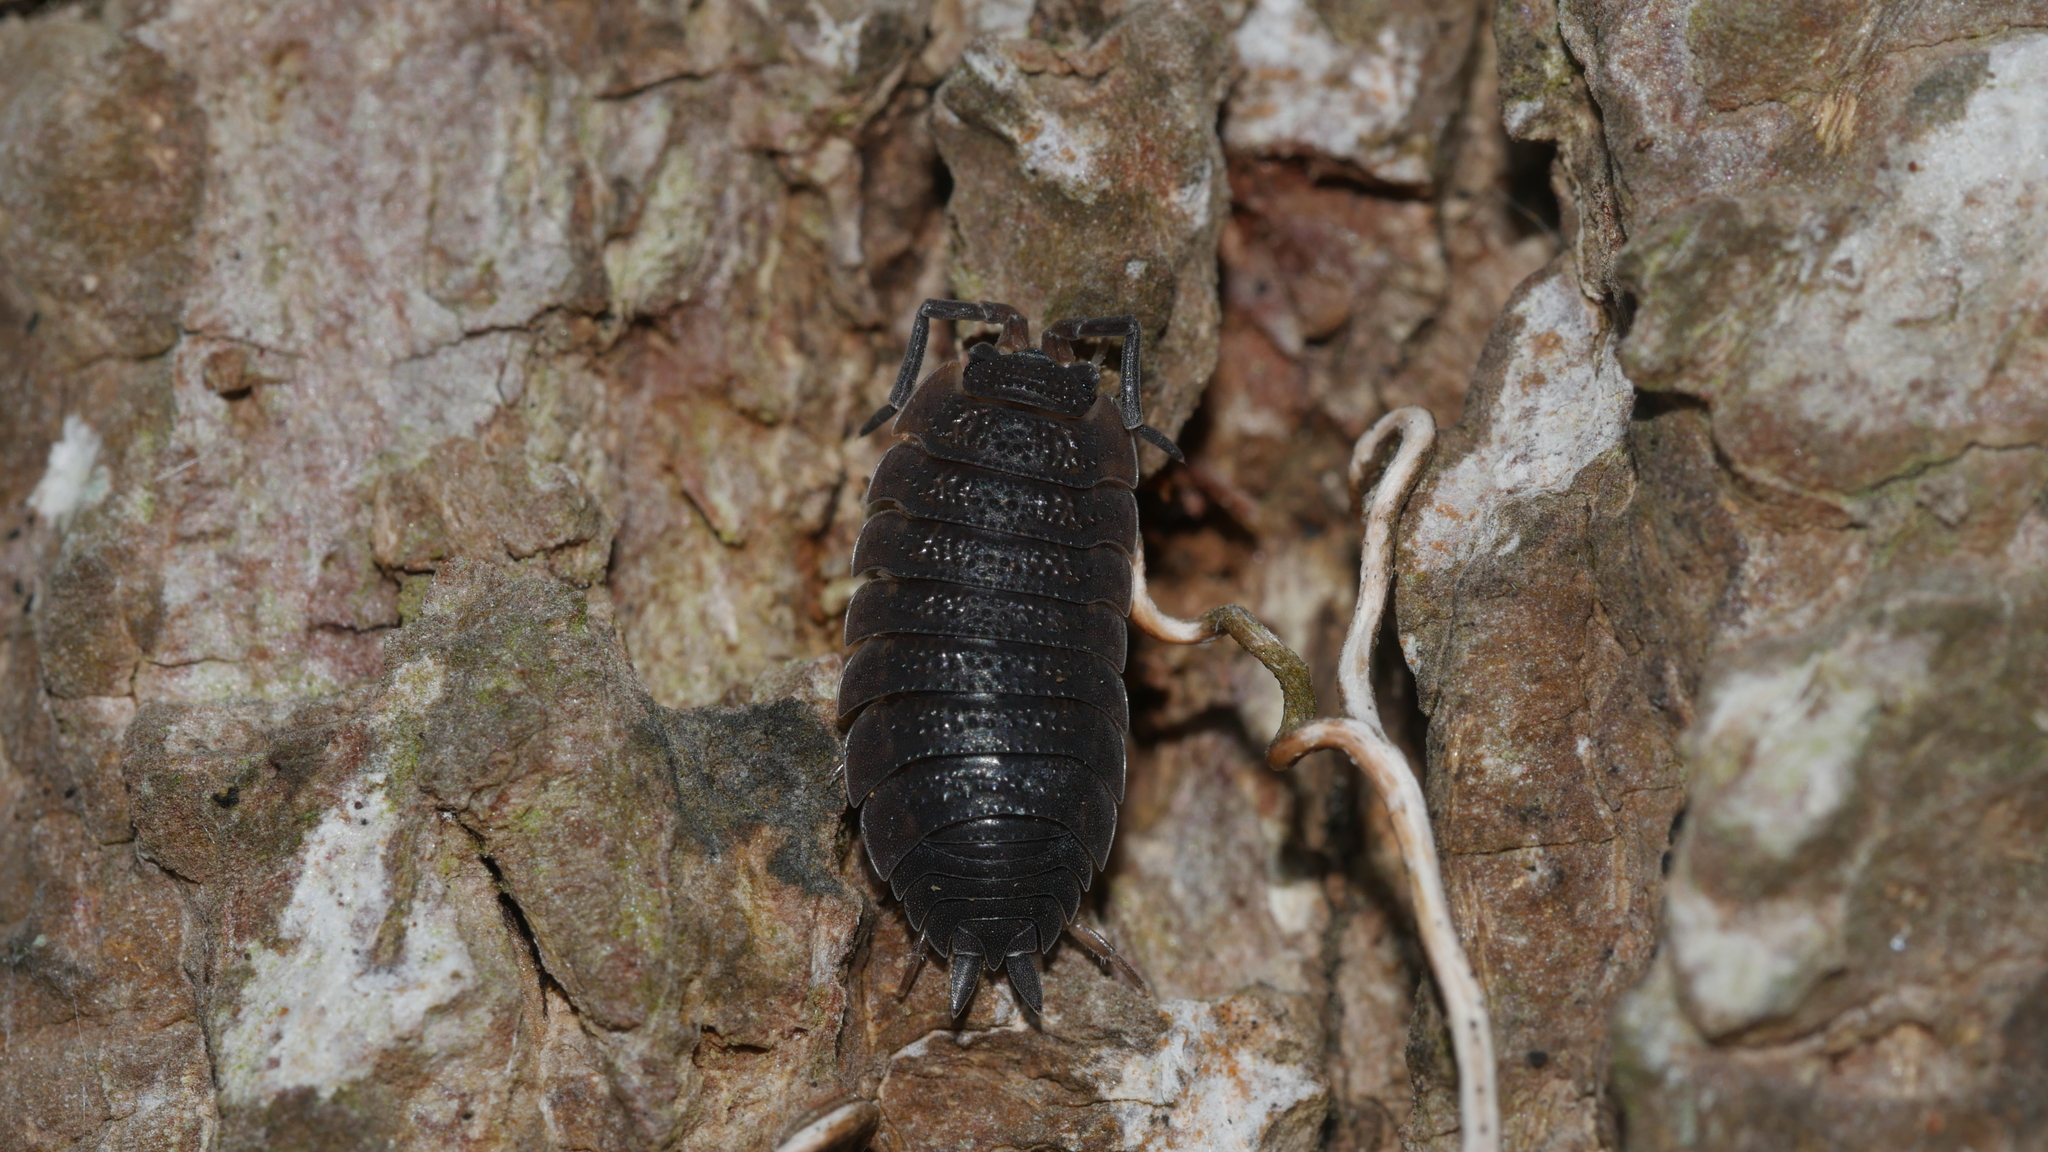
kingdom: Animalia
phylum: Arthropoda
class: Malacostraca
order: Isopoda
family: Porcellionidae
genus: Porcellio
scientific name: Porcellio scaber
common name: Common rough woodlouse
